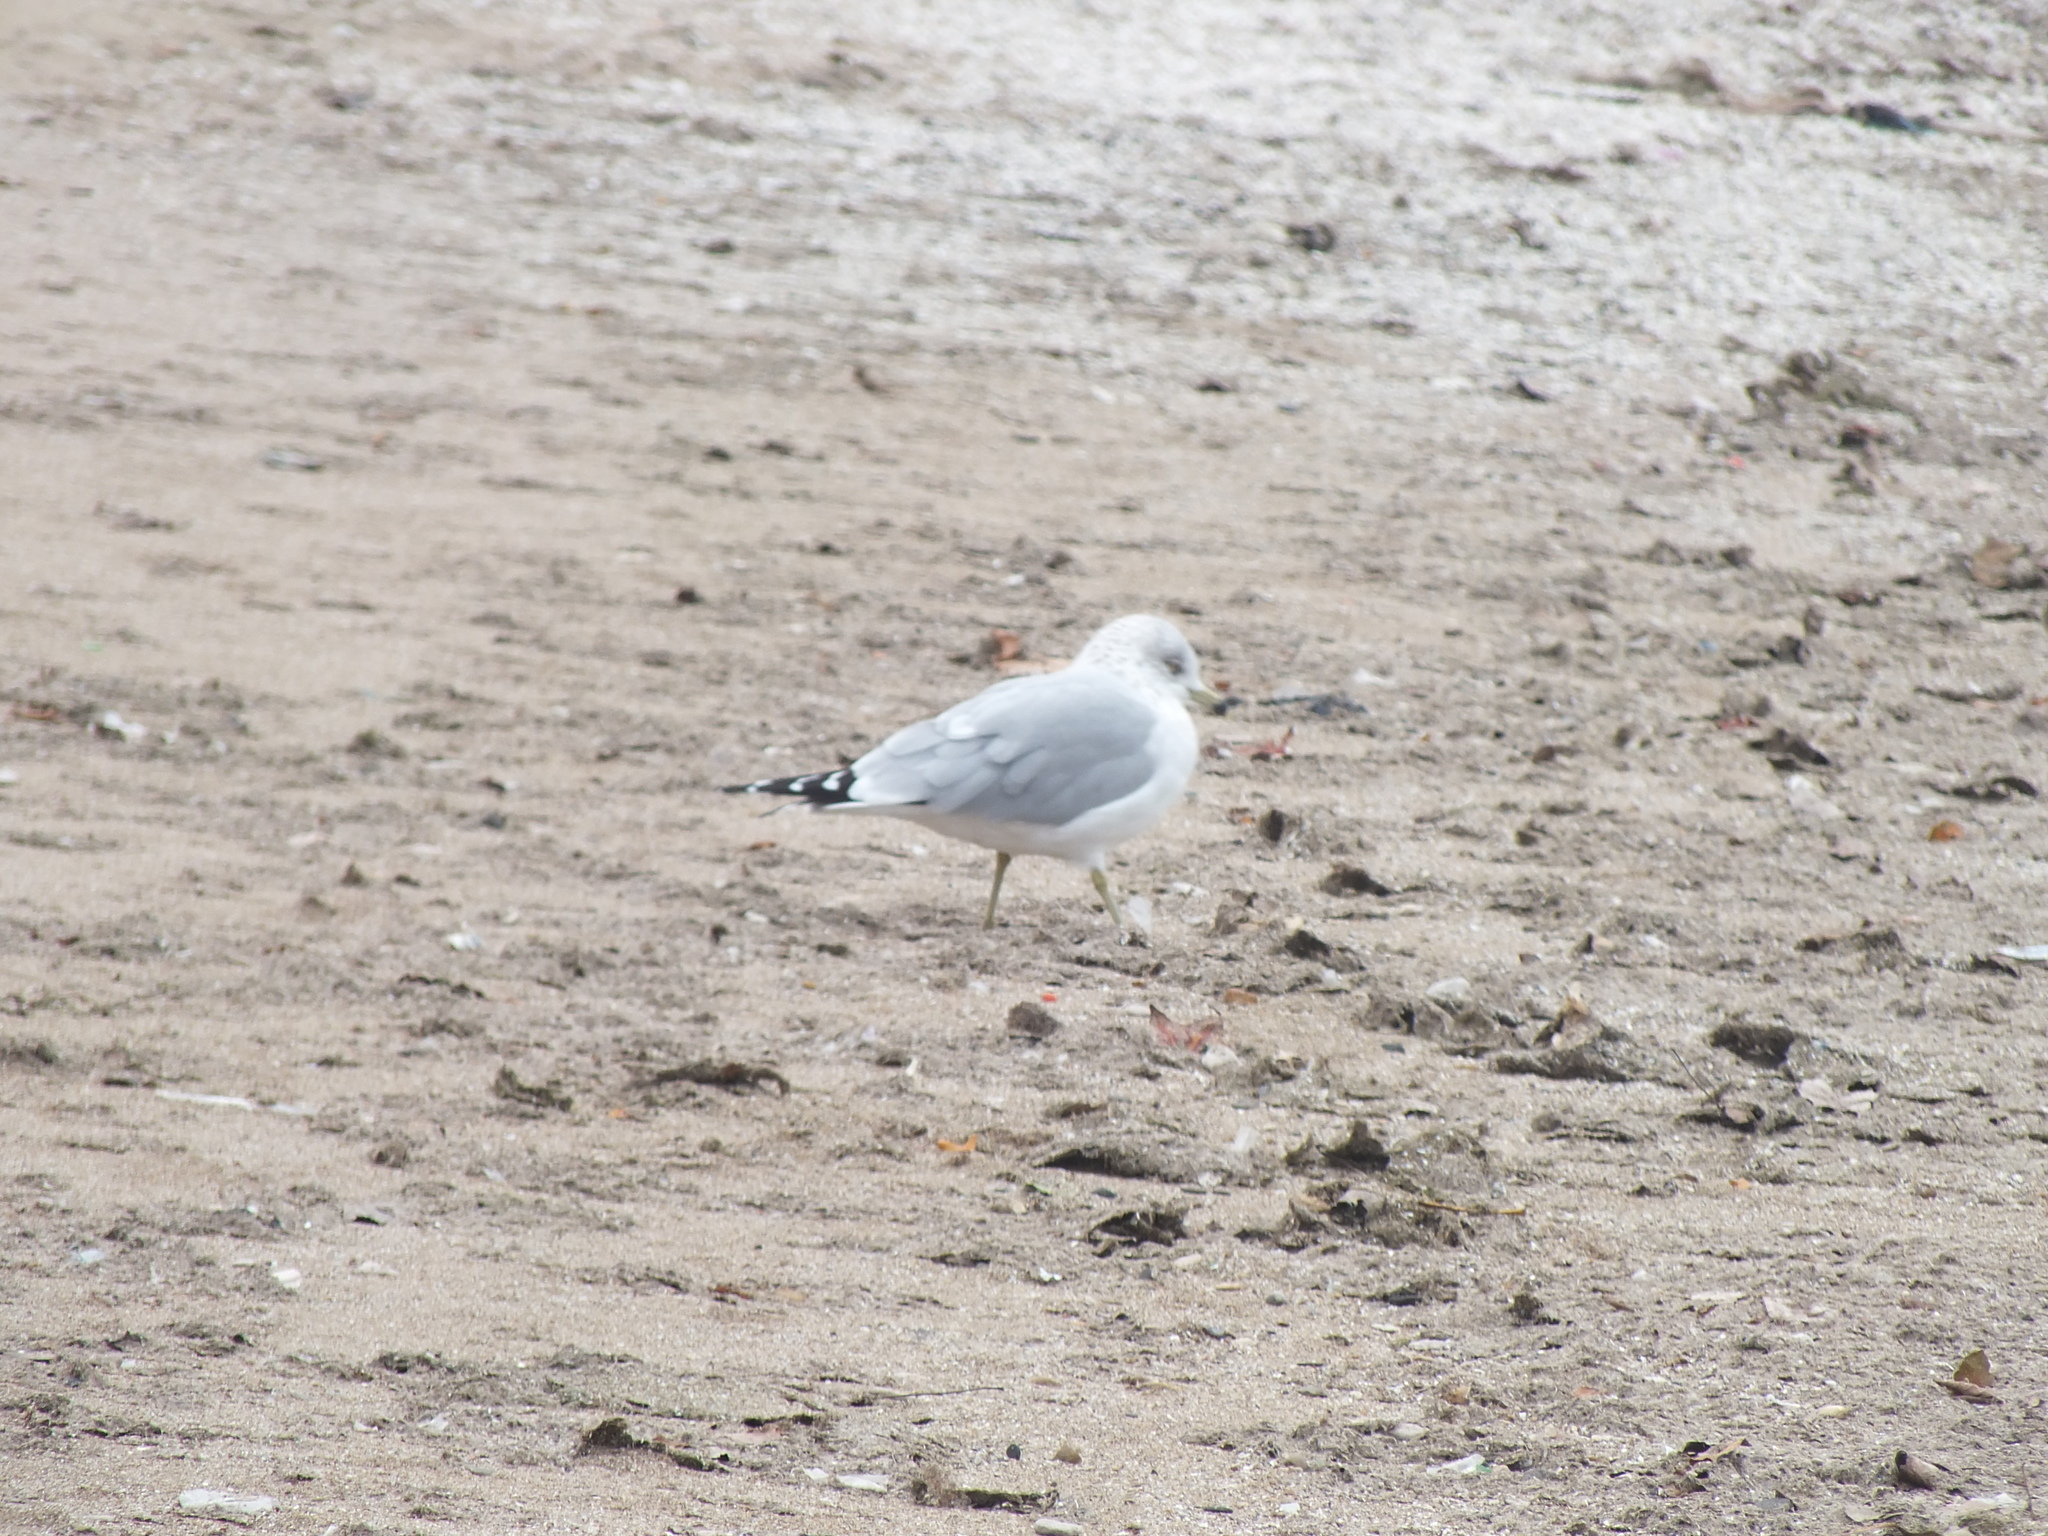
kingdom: Animalia
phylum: Chordata
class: Aves
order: Charadriiformes
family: Laridae
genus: Larus
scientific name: Larus delawarensis
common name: Ring-billed gull
